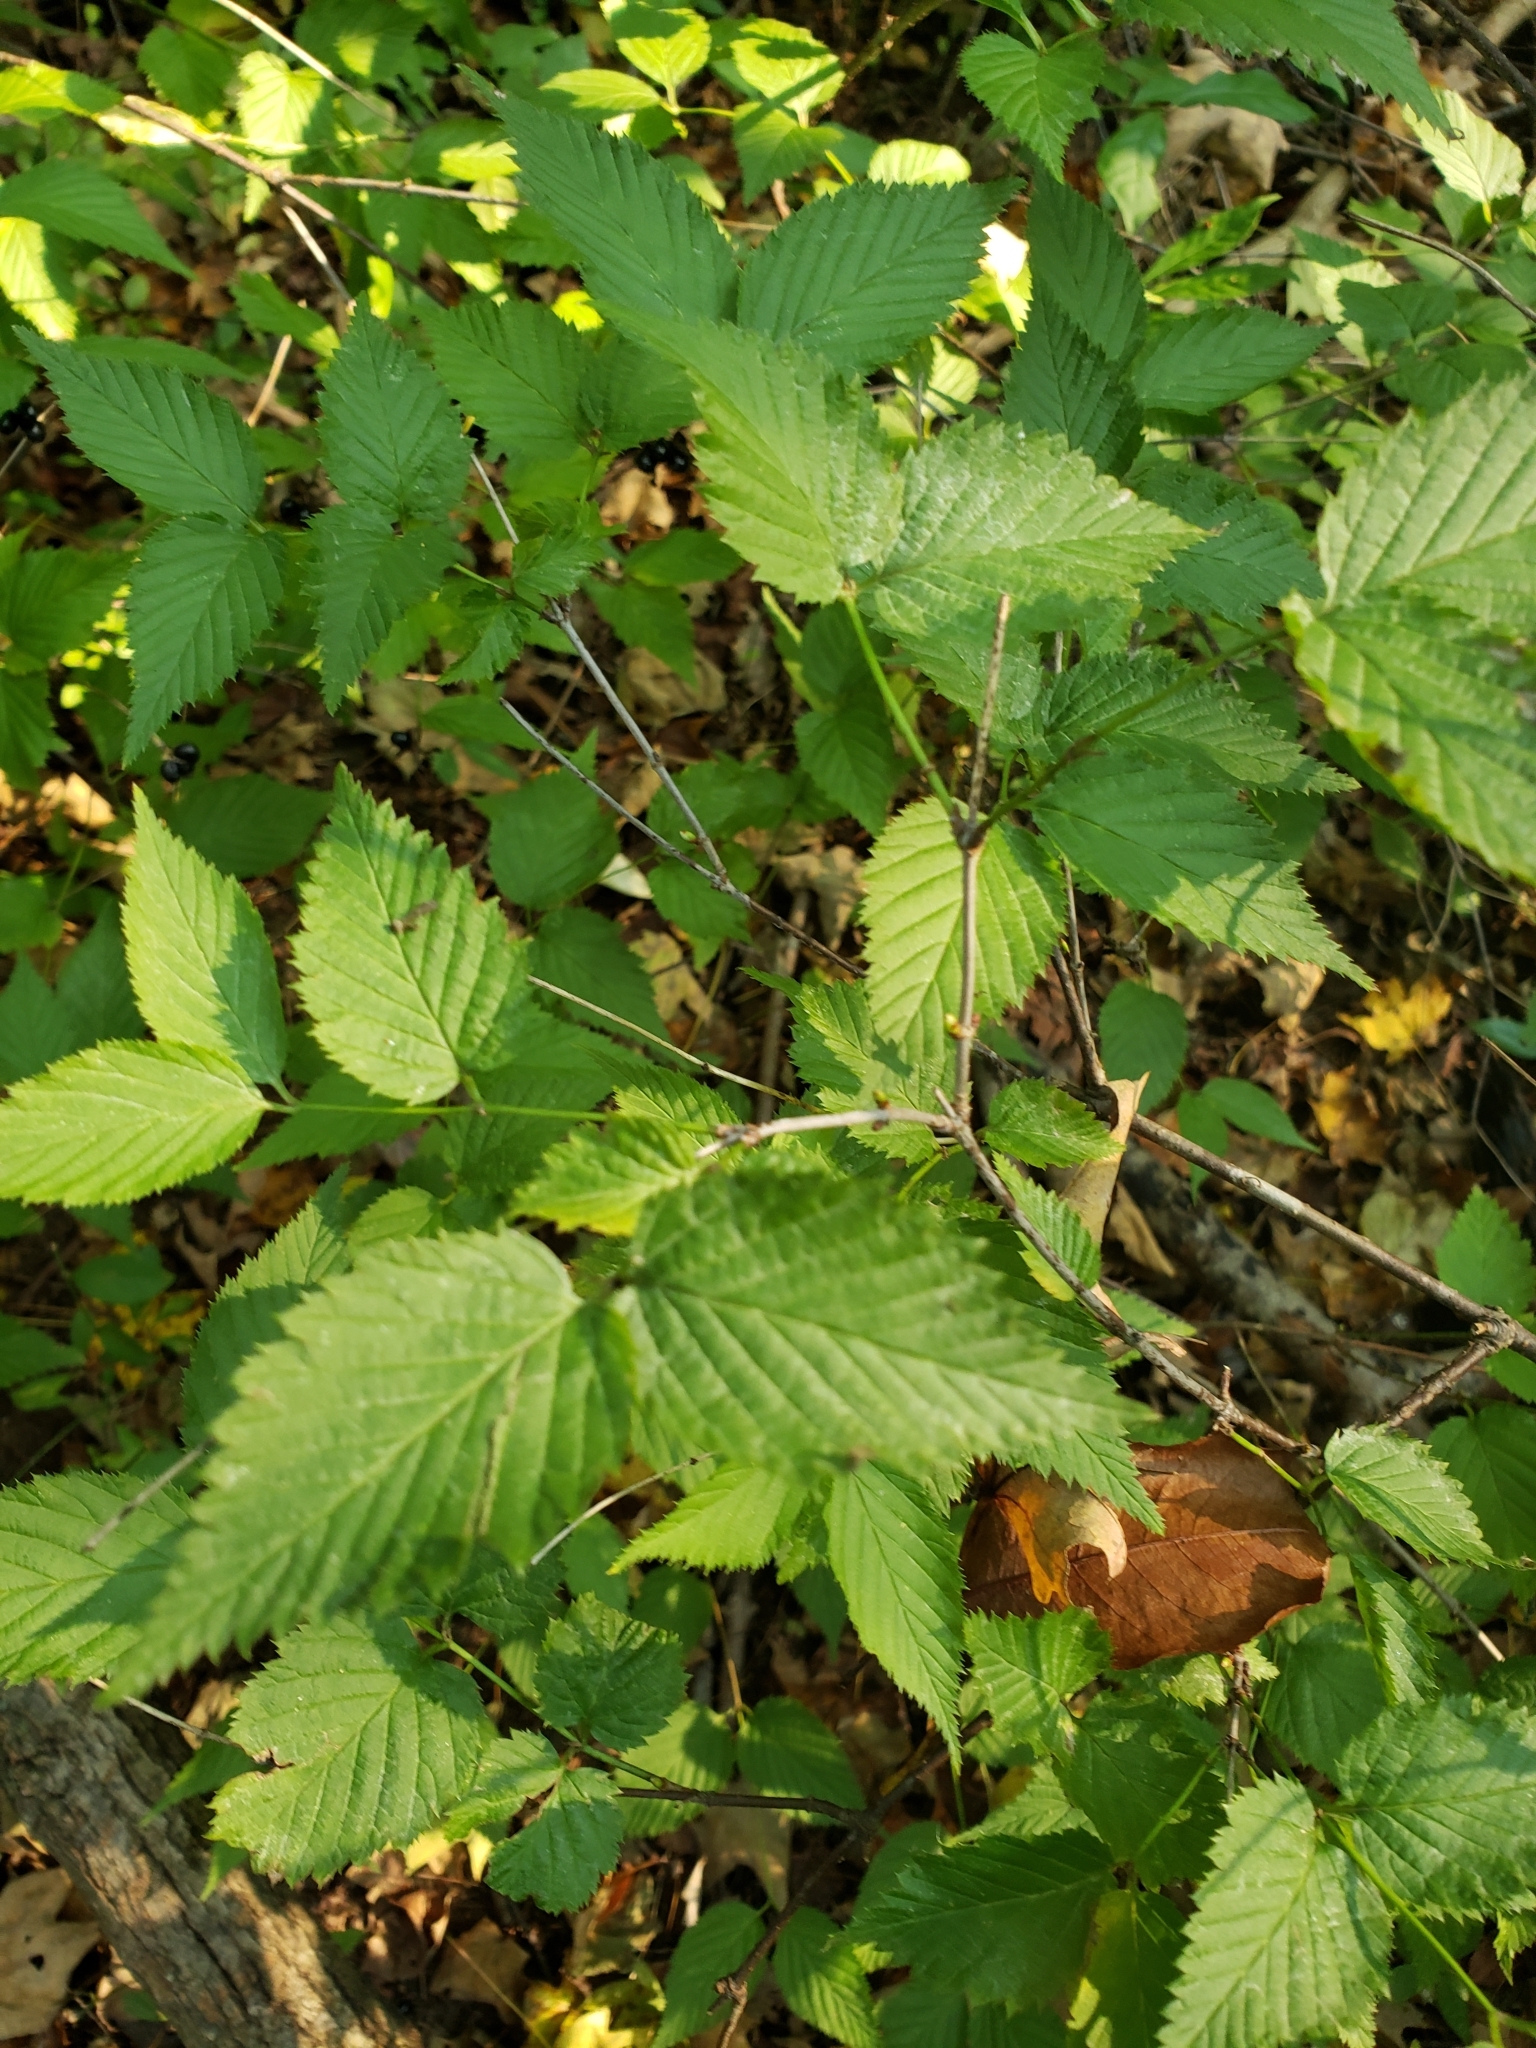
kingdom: Plantae
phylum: Tracheophyta
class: Magnoliopsida
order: Rosales
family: Rosaceae
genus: Rhodotypos
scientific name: Rhodotypos scandens
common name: Jetbead
